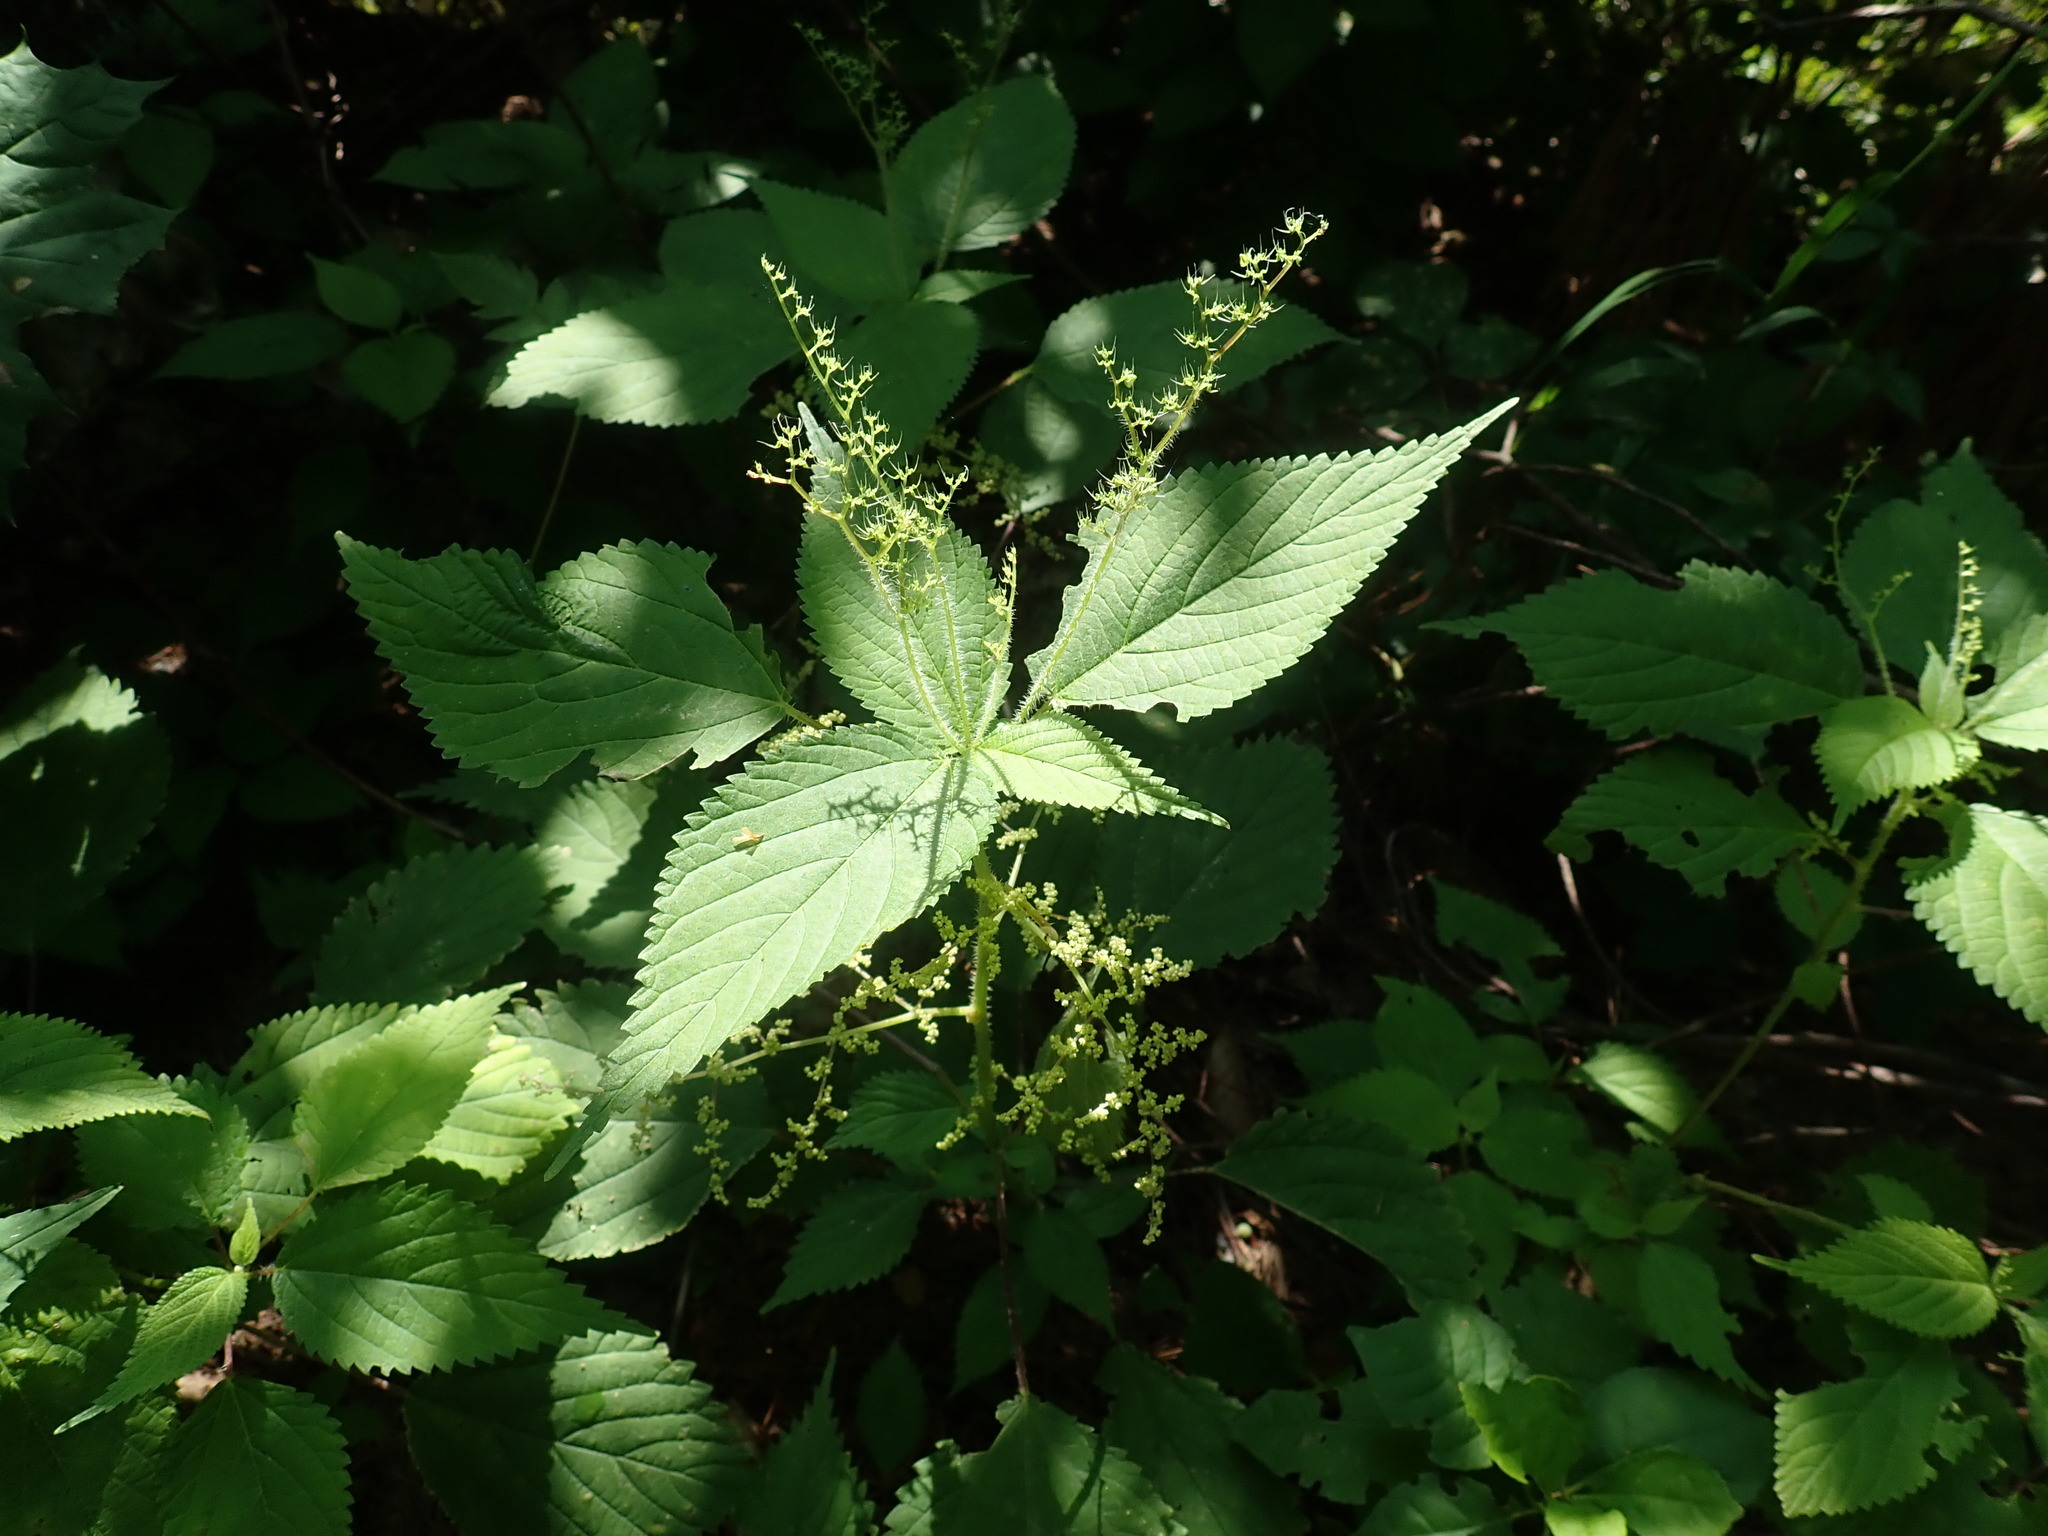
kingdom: Plantae
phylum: Tracheophyta
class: Magnoliopsida
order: Rosales
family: Urticaceae
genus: Laportea
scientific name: Laportea canadensis
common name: Canada nettle
